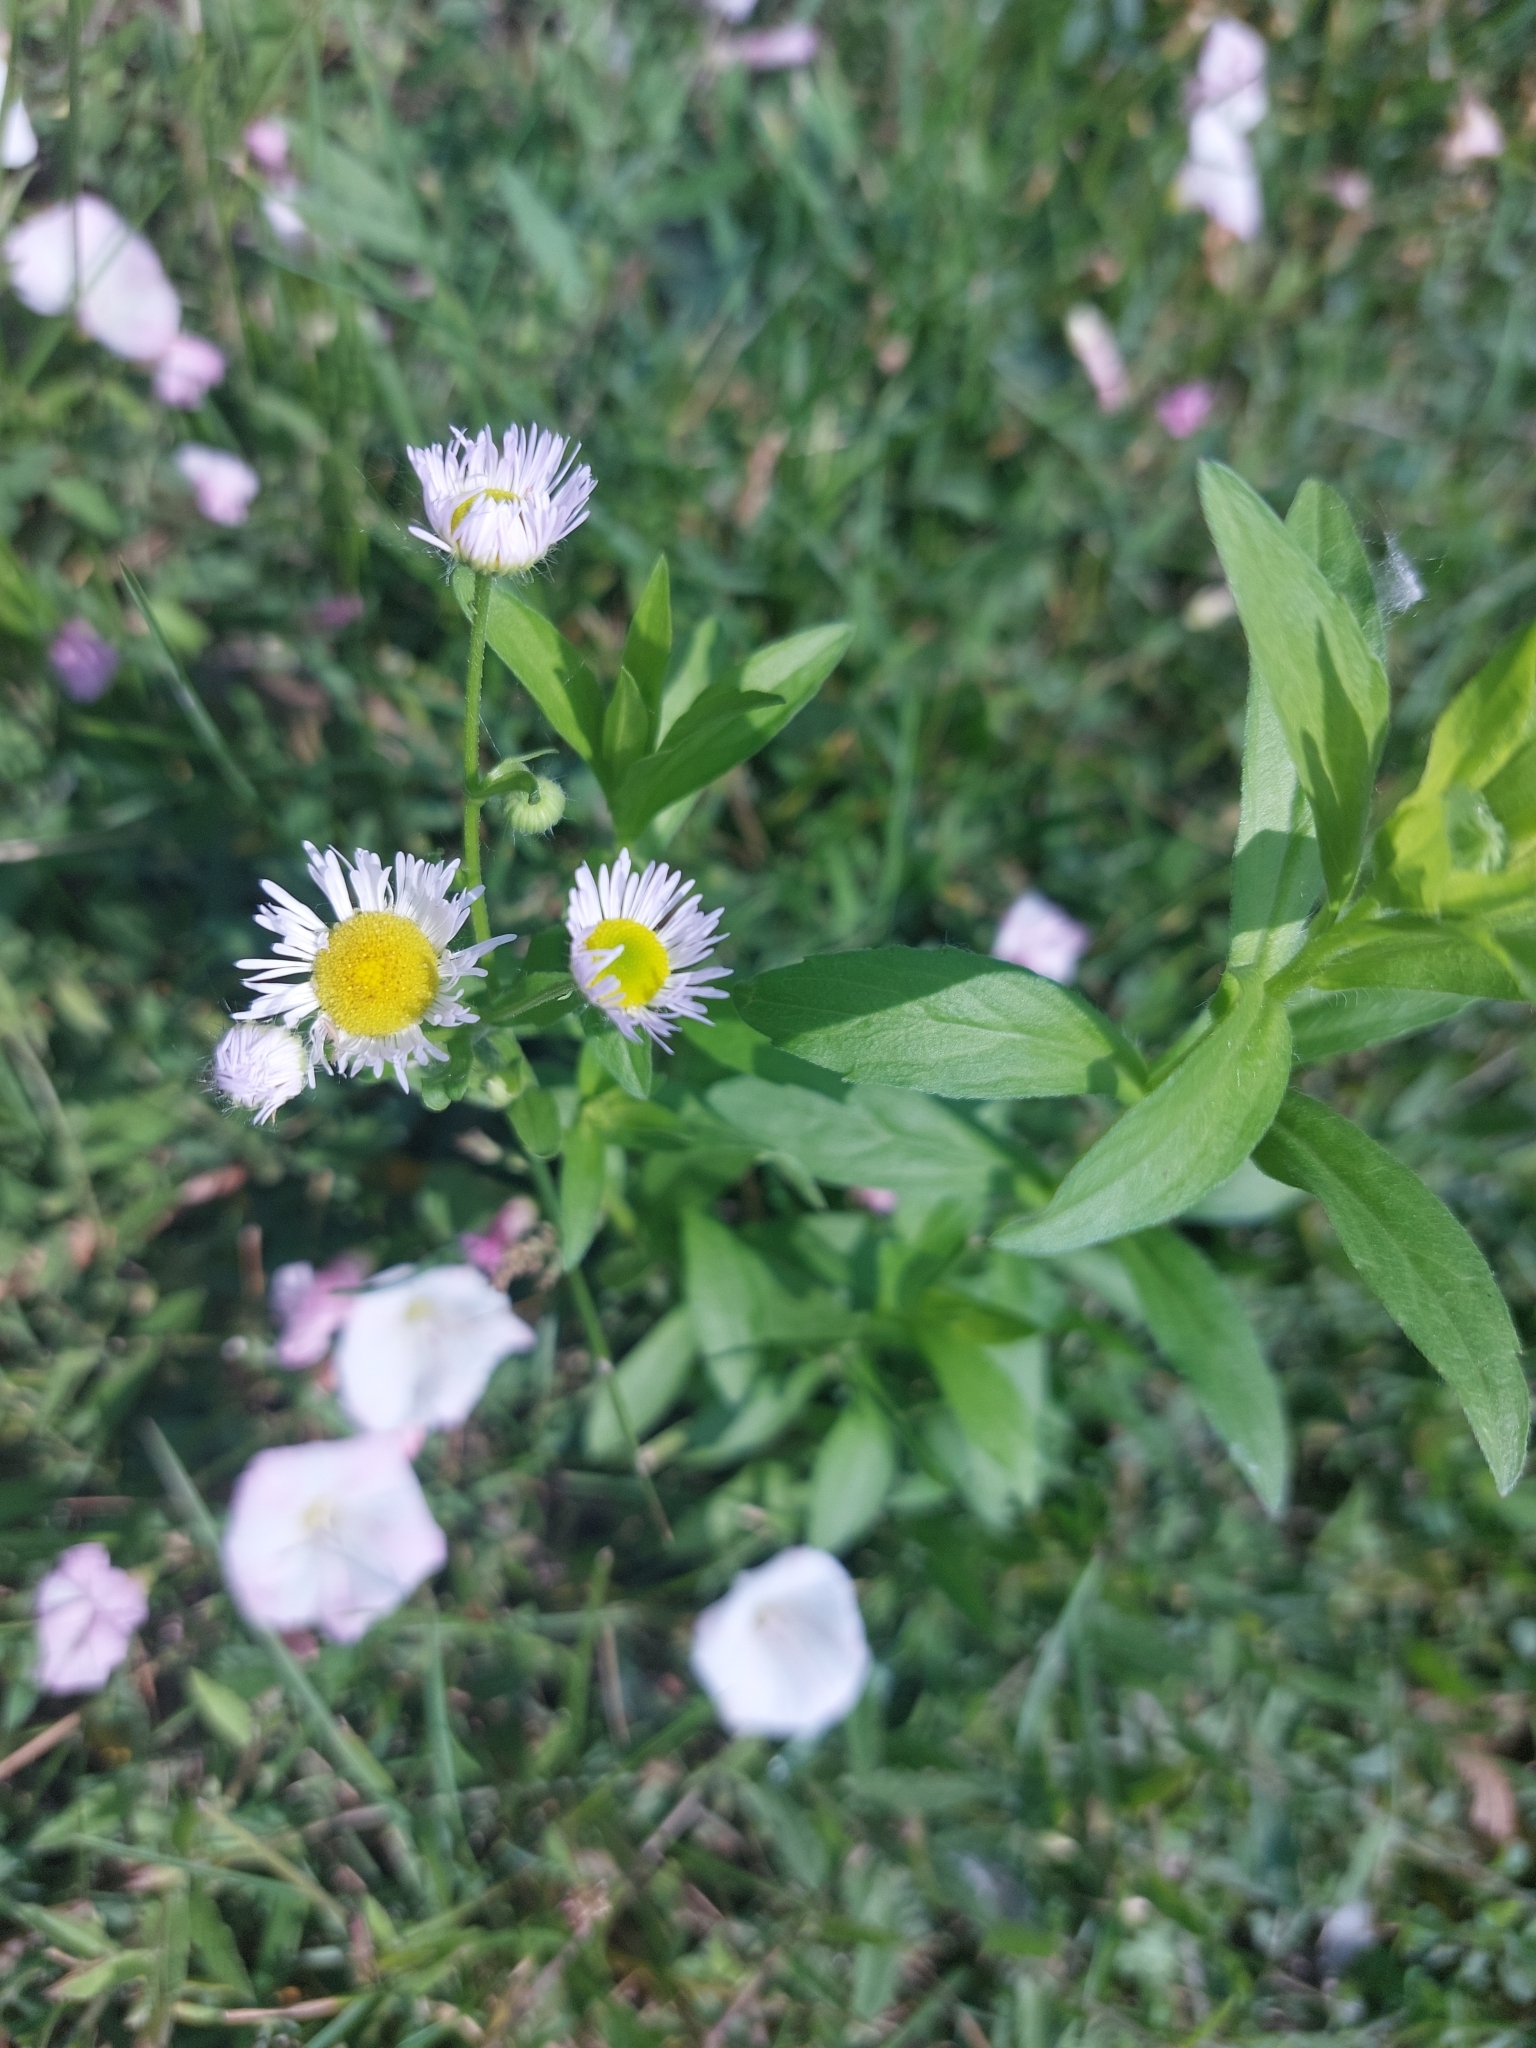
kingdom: Plantae
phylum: Tracheophyta
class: Magnoliopsida
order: Asterales
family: Asteraceae
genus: Erigeron
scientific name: Erigeron annuus
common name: Tall fleabane
